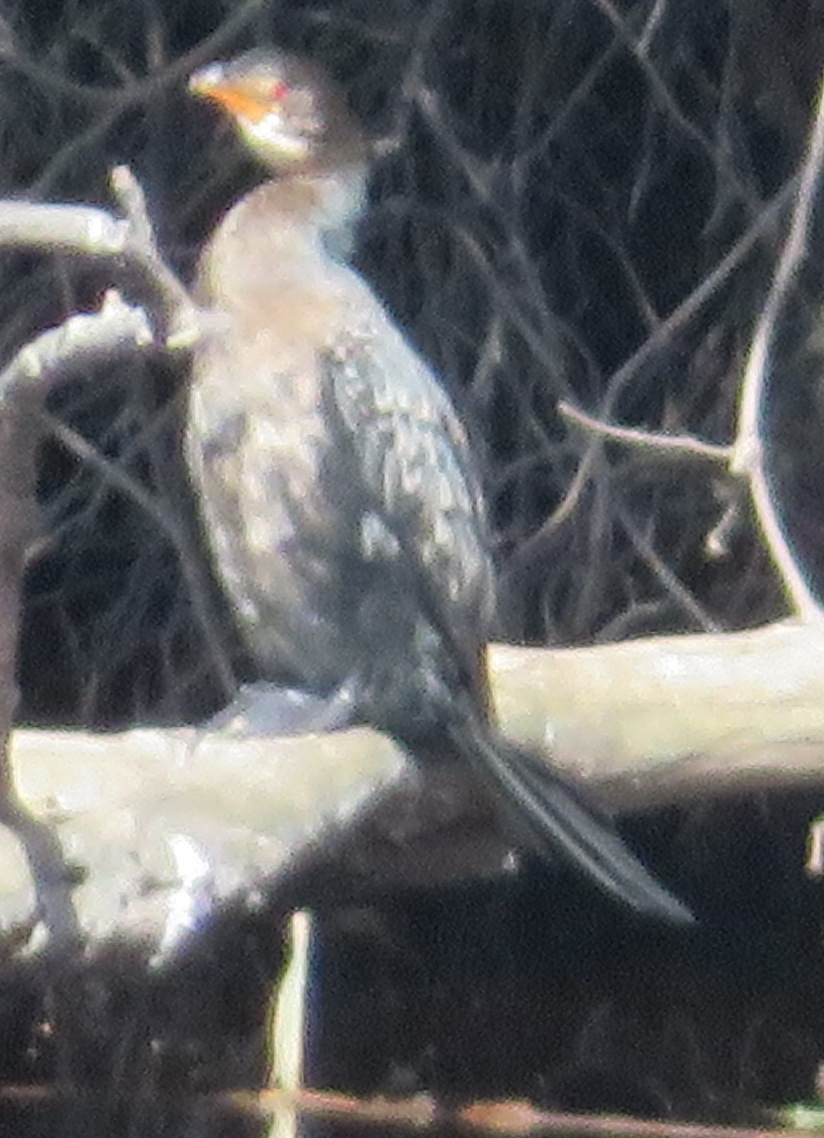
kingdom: Animalia
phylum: Chordata
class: Aves
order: Suliformes
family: Phalacrocoracidae
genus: Microcarbo
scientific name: Microcarbo africanus
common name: Long-tailed cormorant
